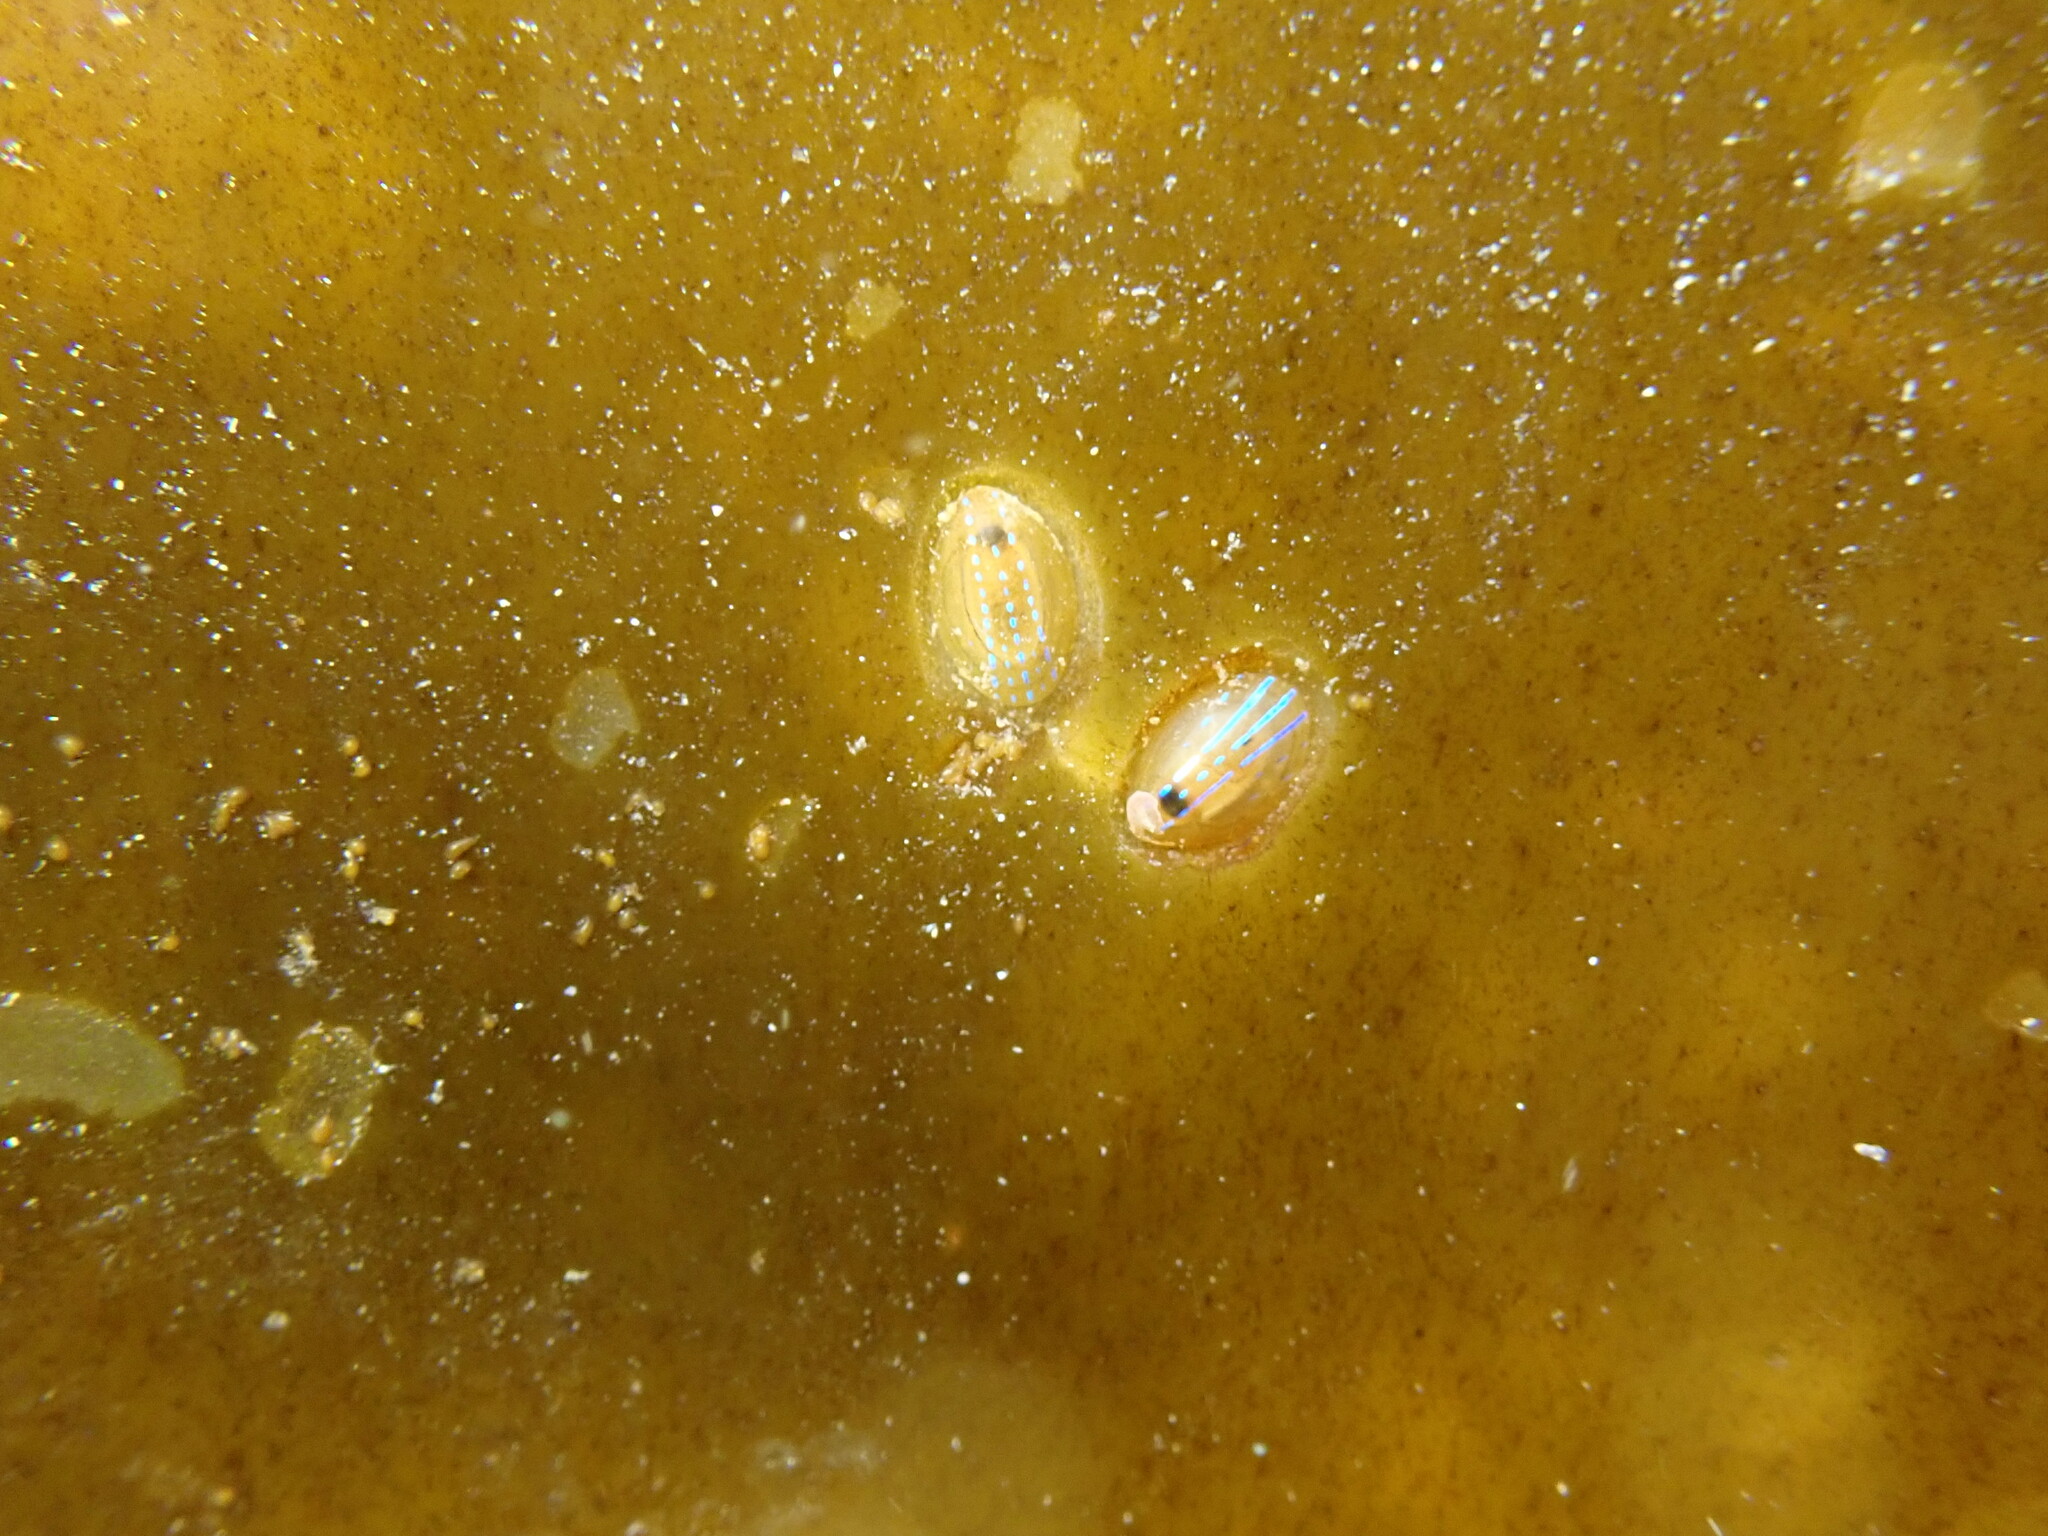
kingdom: Animalia
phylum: Mollusca
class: Gastropoda
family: Patellidae
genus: Patella
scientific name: Patella pellucida
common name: Blue-rayed limpet
